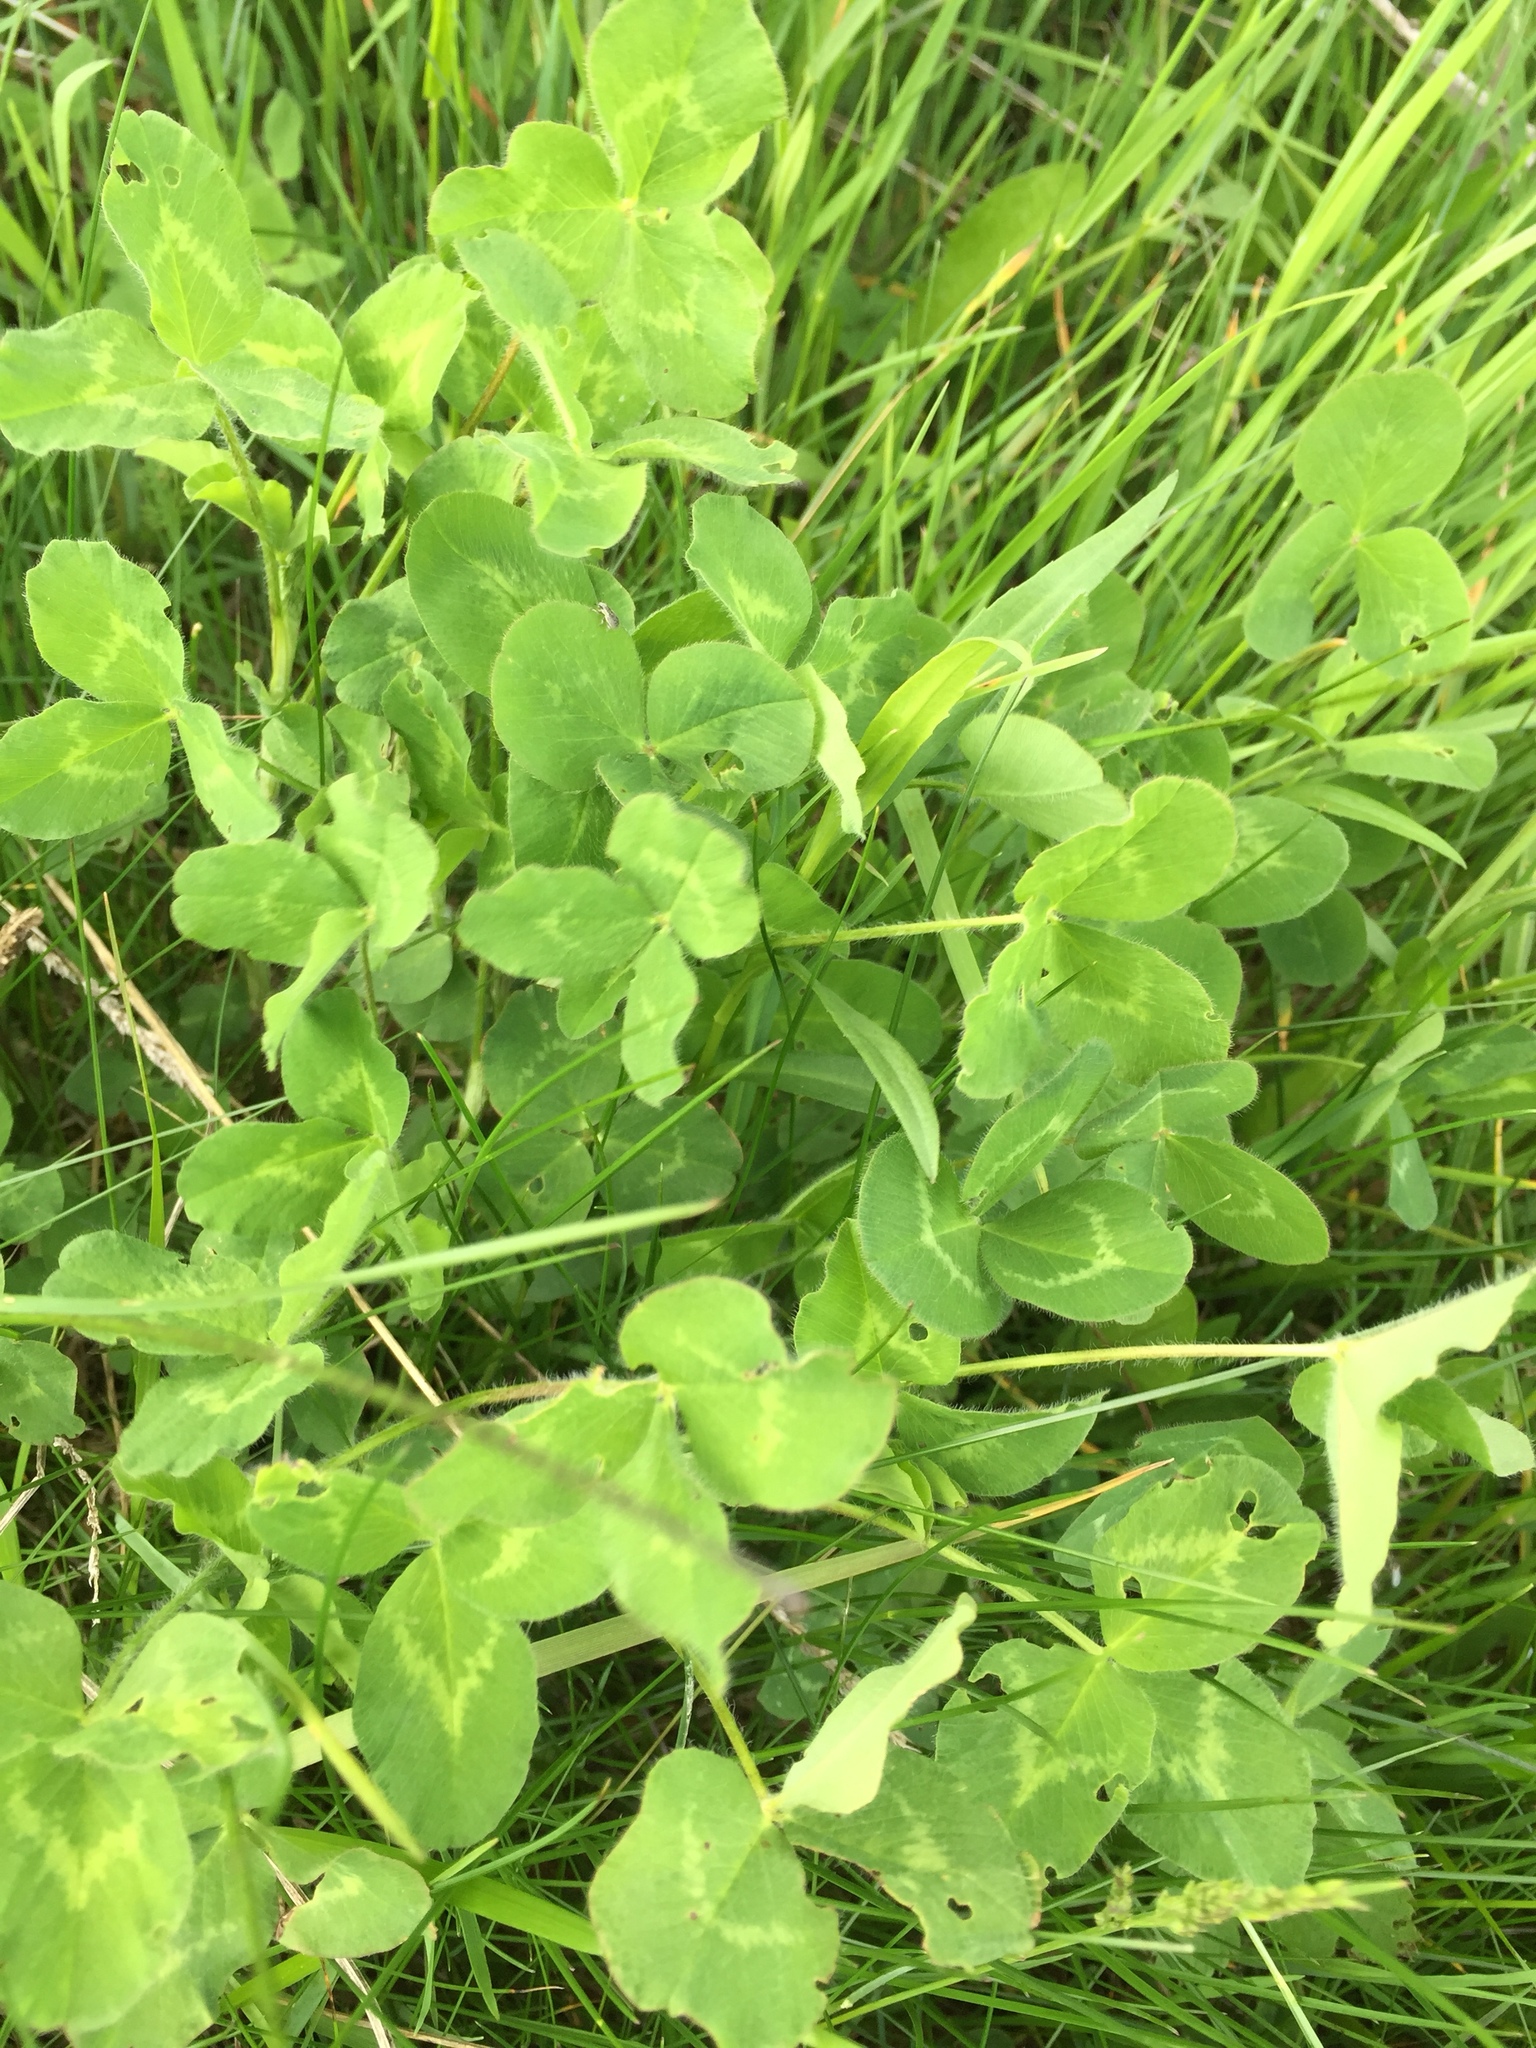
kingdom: Plantae
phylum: Tracheophyta
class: Magnoliopsida
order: Fabales
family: Fabaceae
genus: Trifolium
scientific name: Trifolium pratense
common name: Red clover
